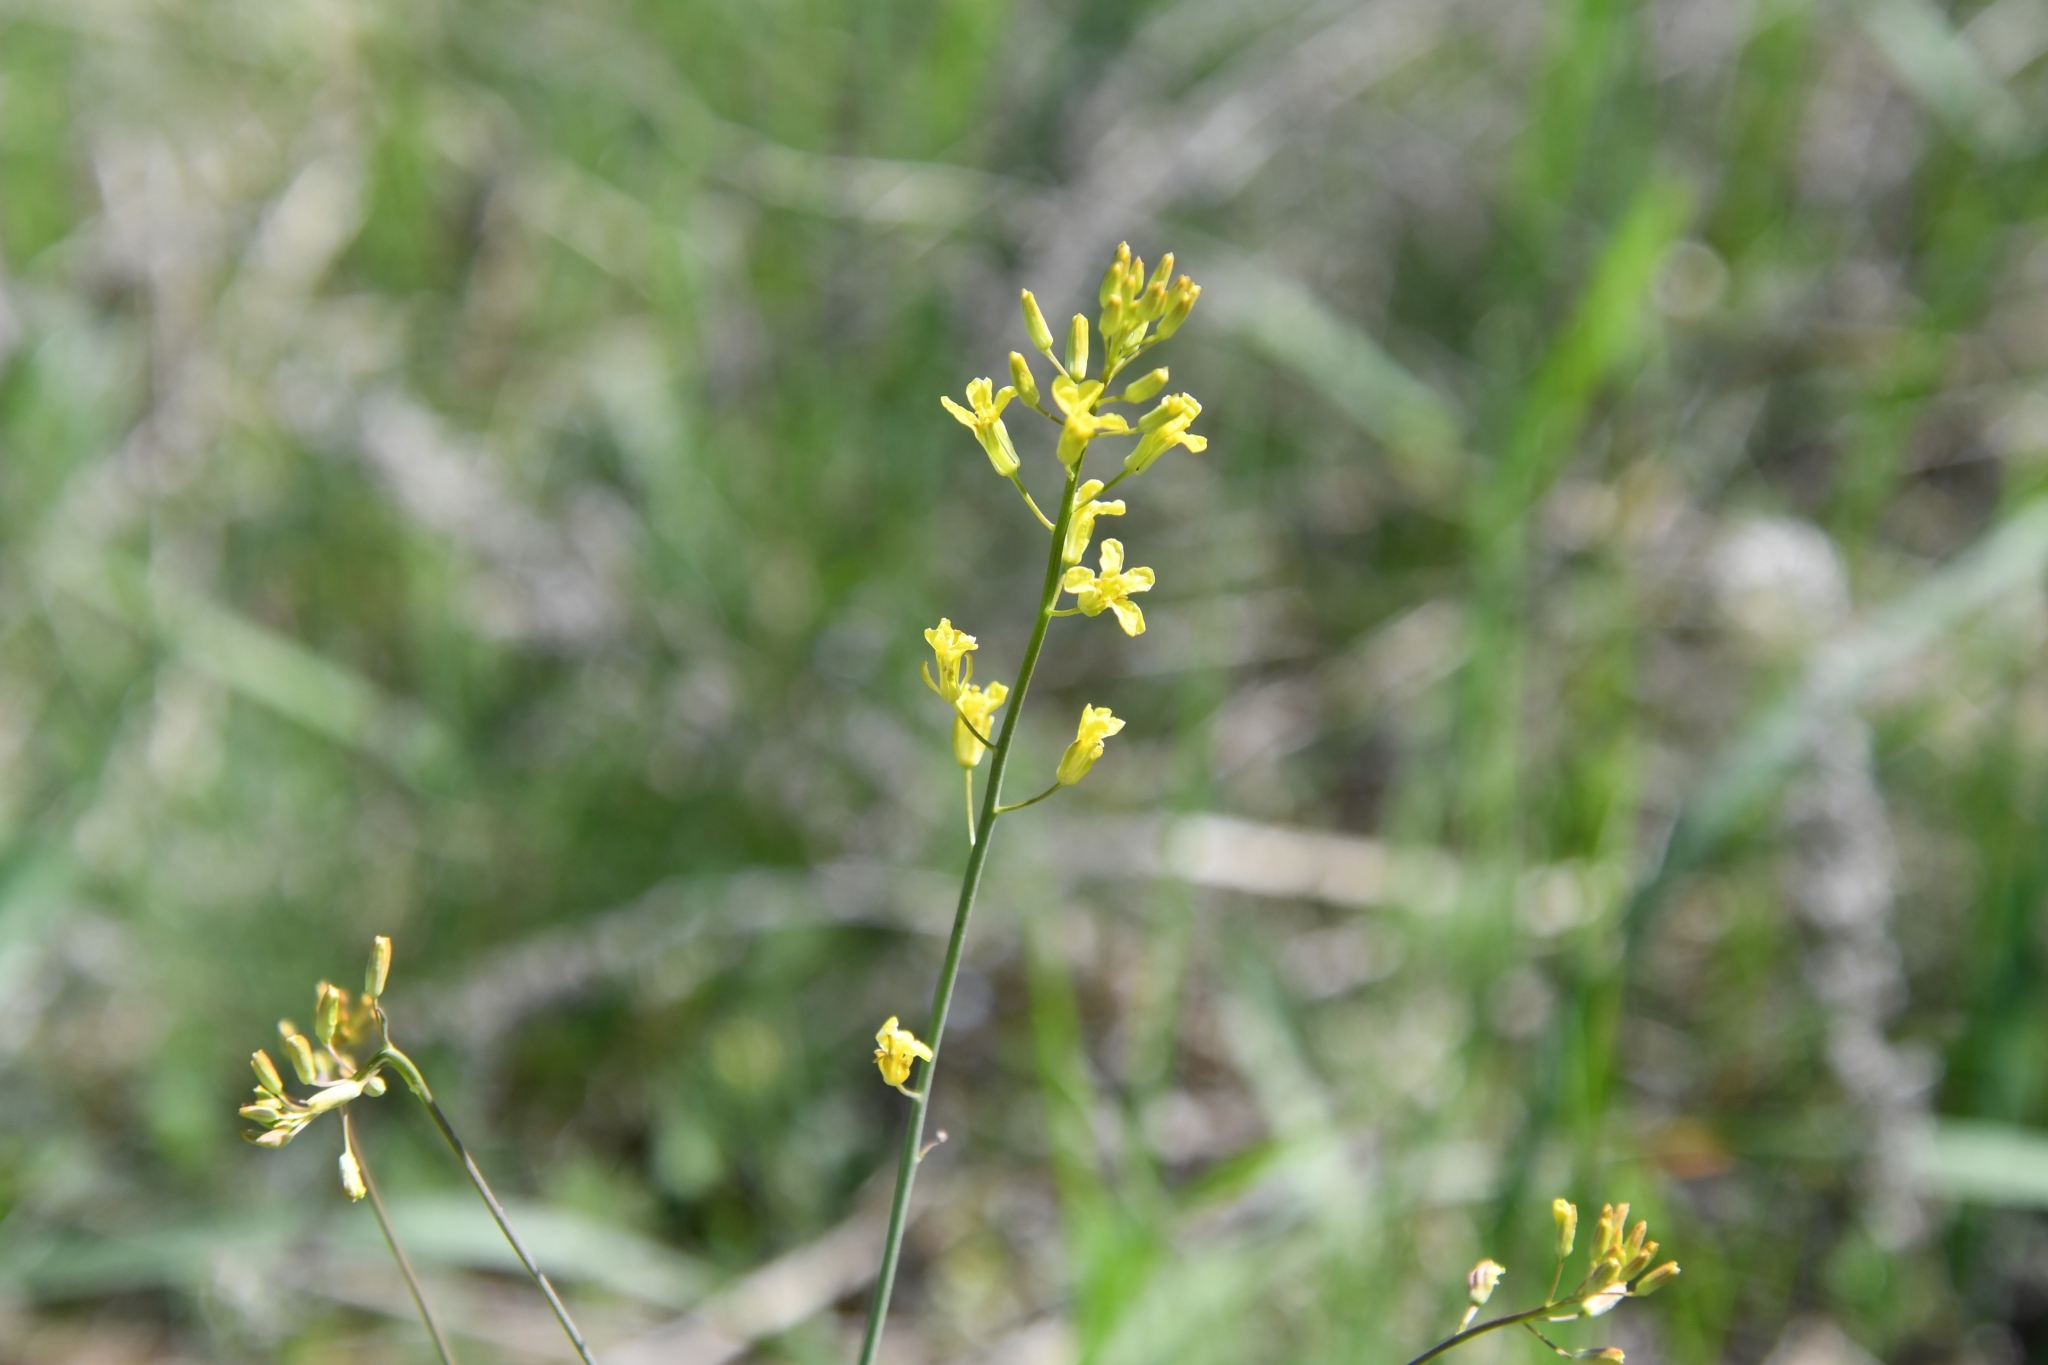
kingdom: Plantae
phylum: Tracheophyta
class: Magnoliopsida
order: Brassicales
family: Brassicaceae
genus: Sisymbrium
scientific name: Sisymbrium polymorphum
